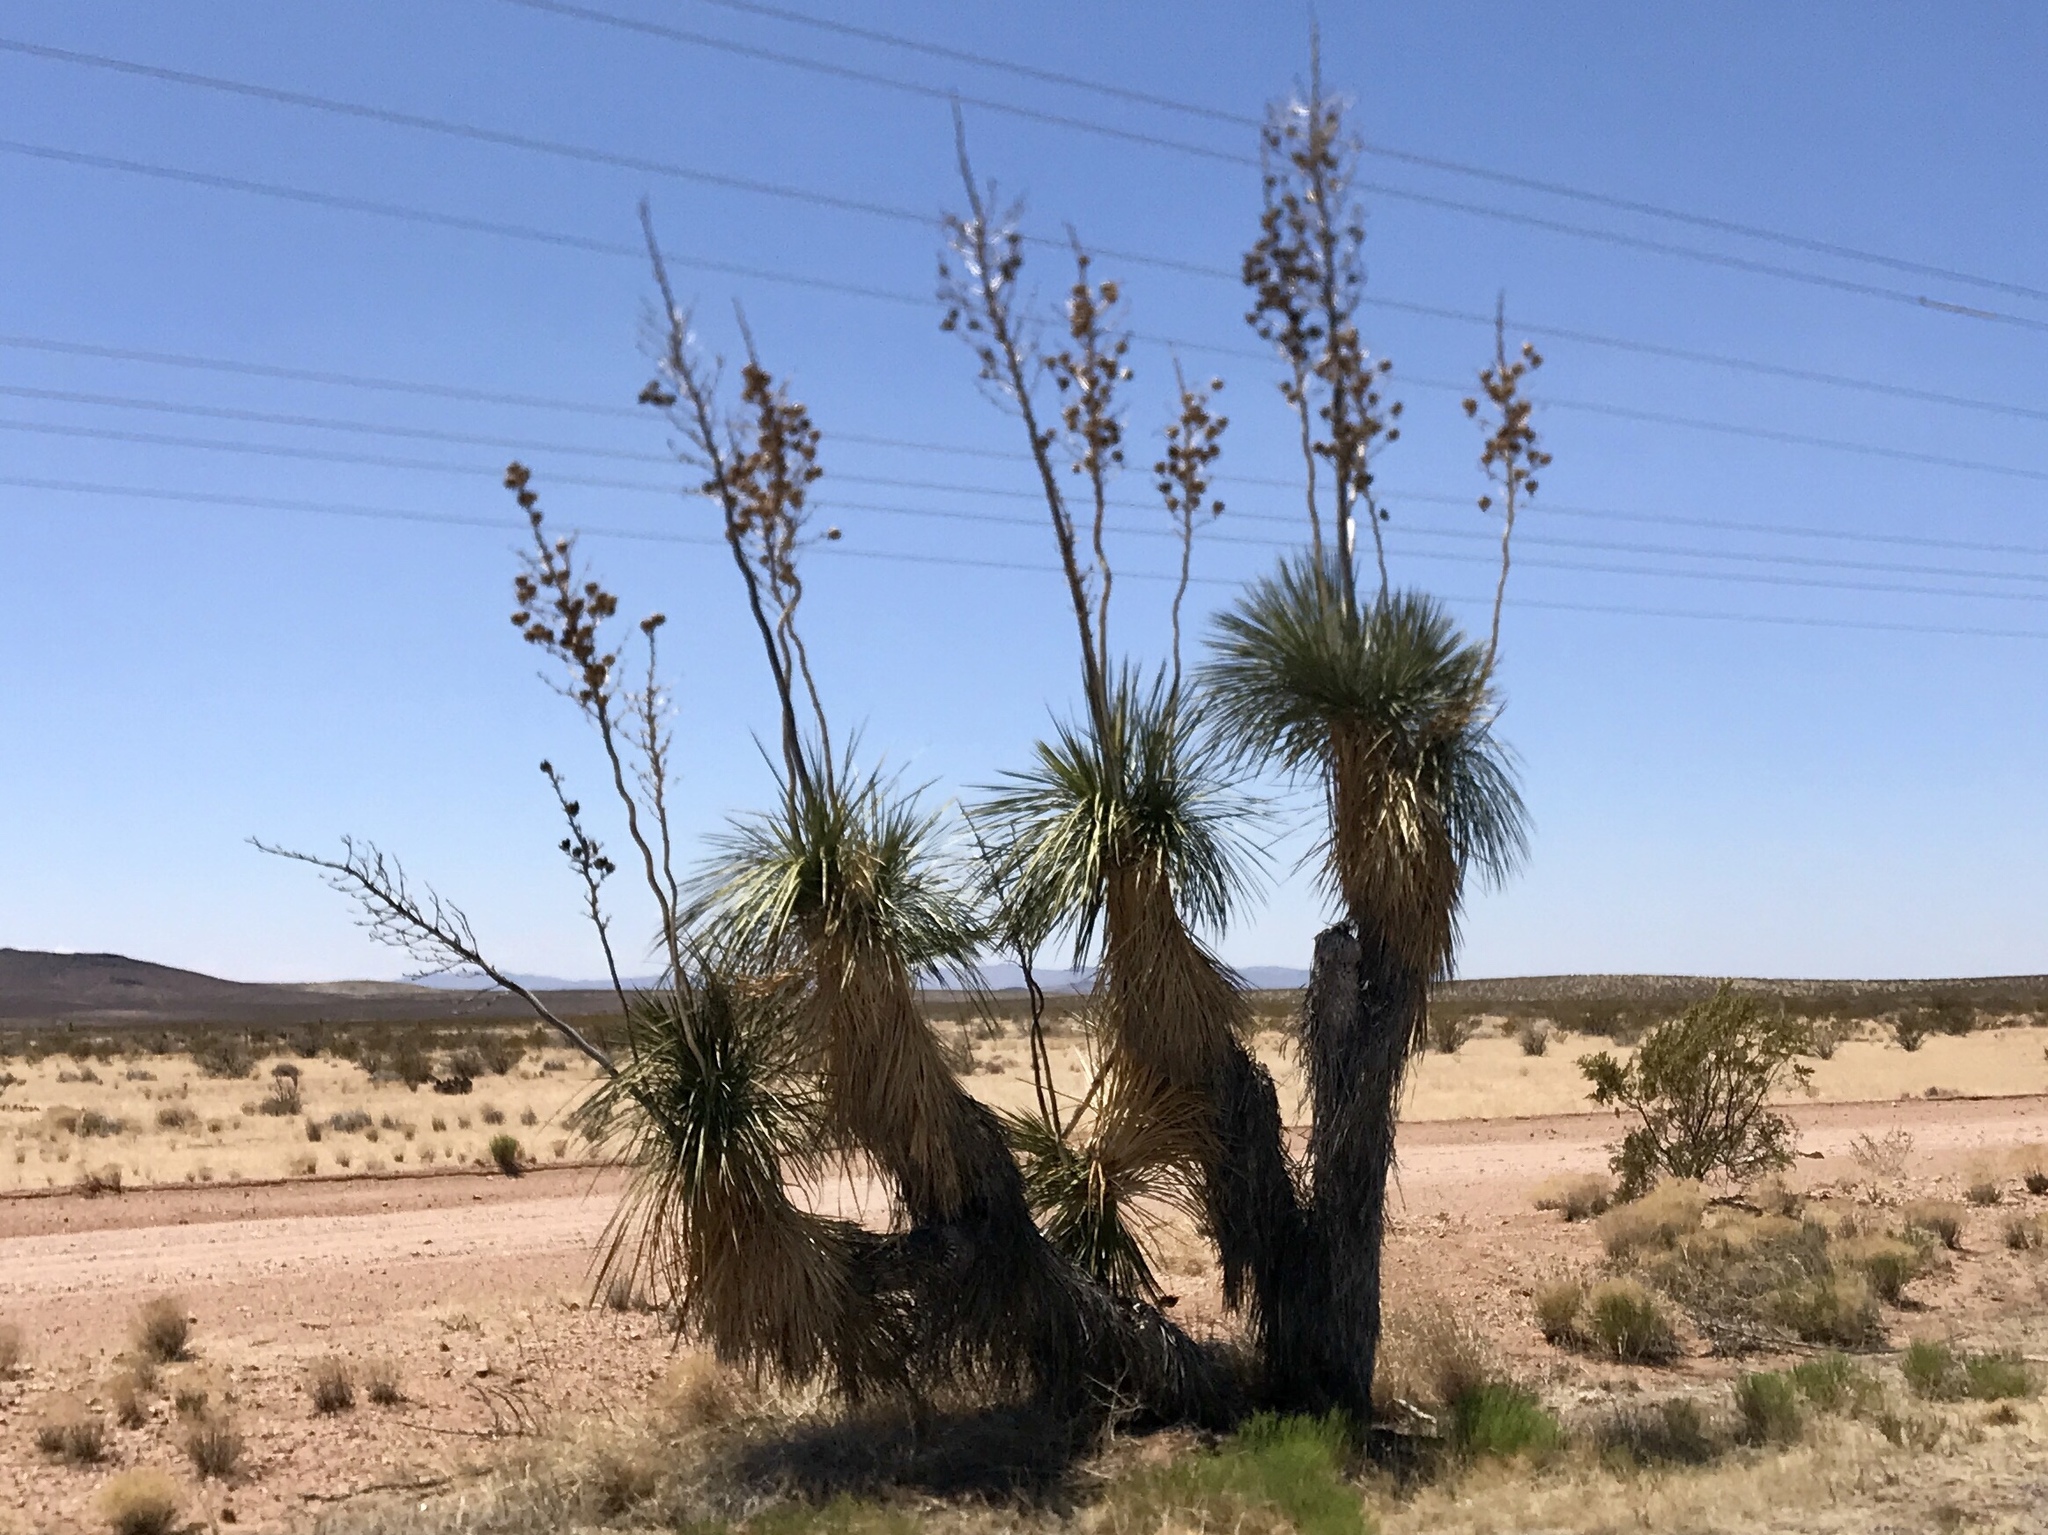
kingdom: Plantae
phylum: Tracheophyta
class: Liliopsida
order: Asparagales
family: Asparagaceae
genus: Yucca
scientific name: Yucca elata
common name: Palmella
